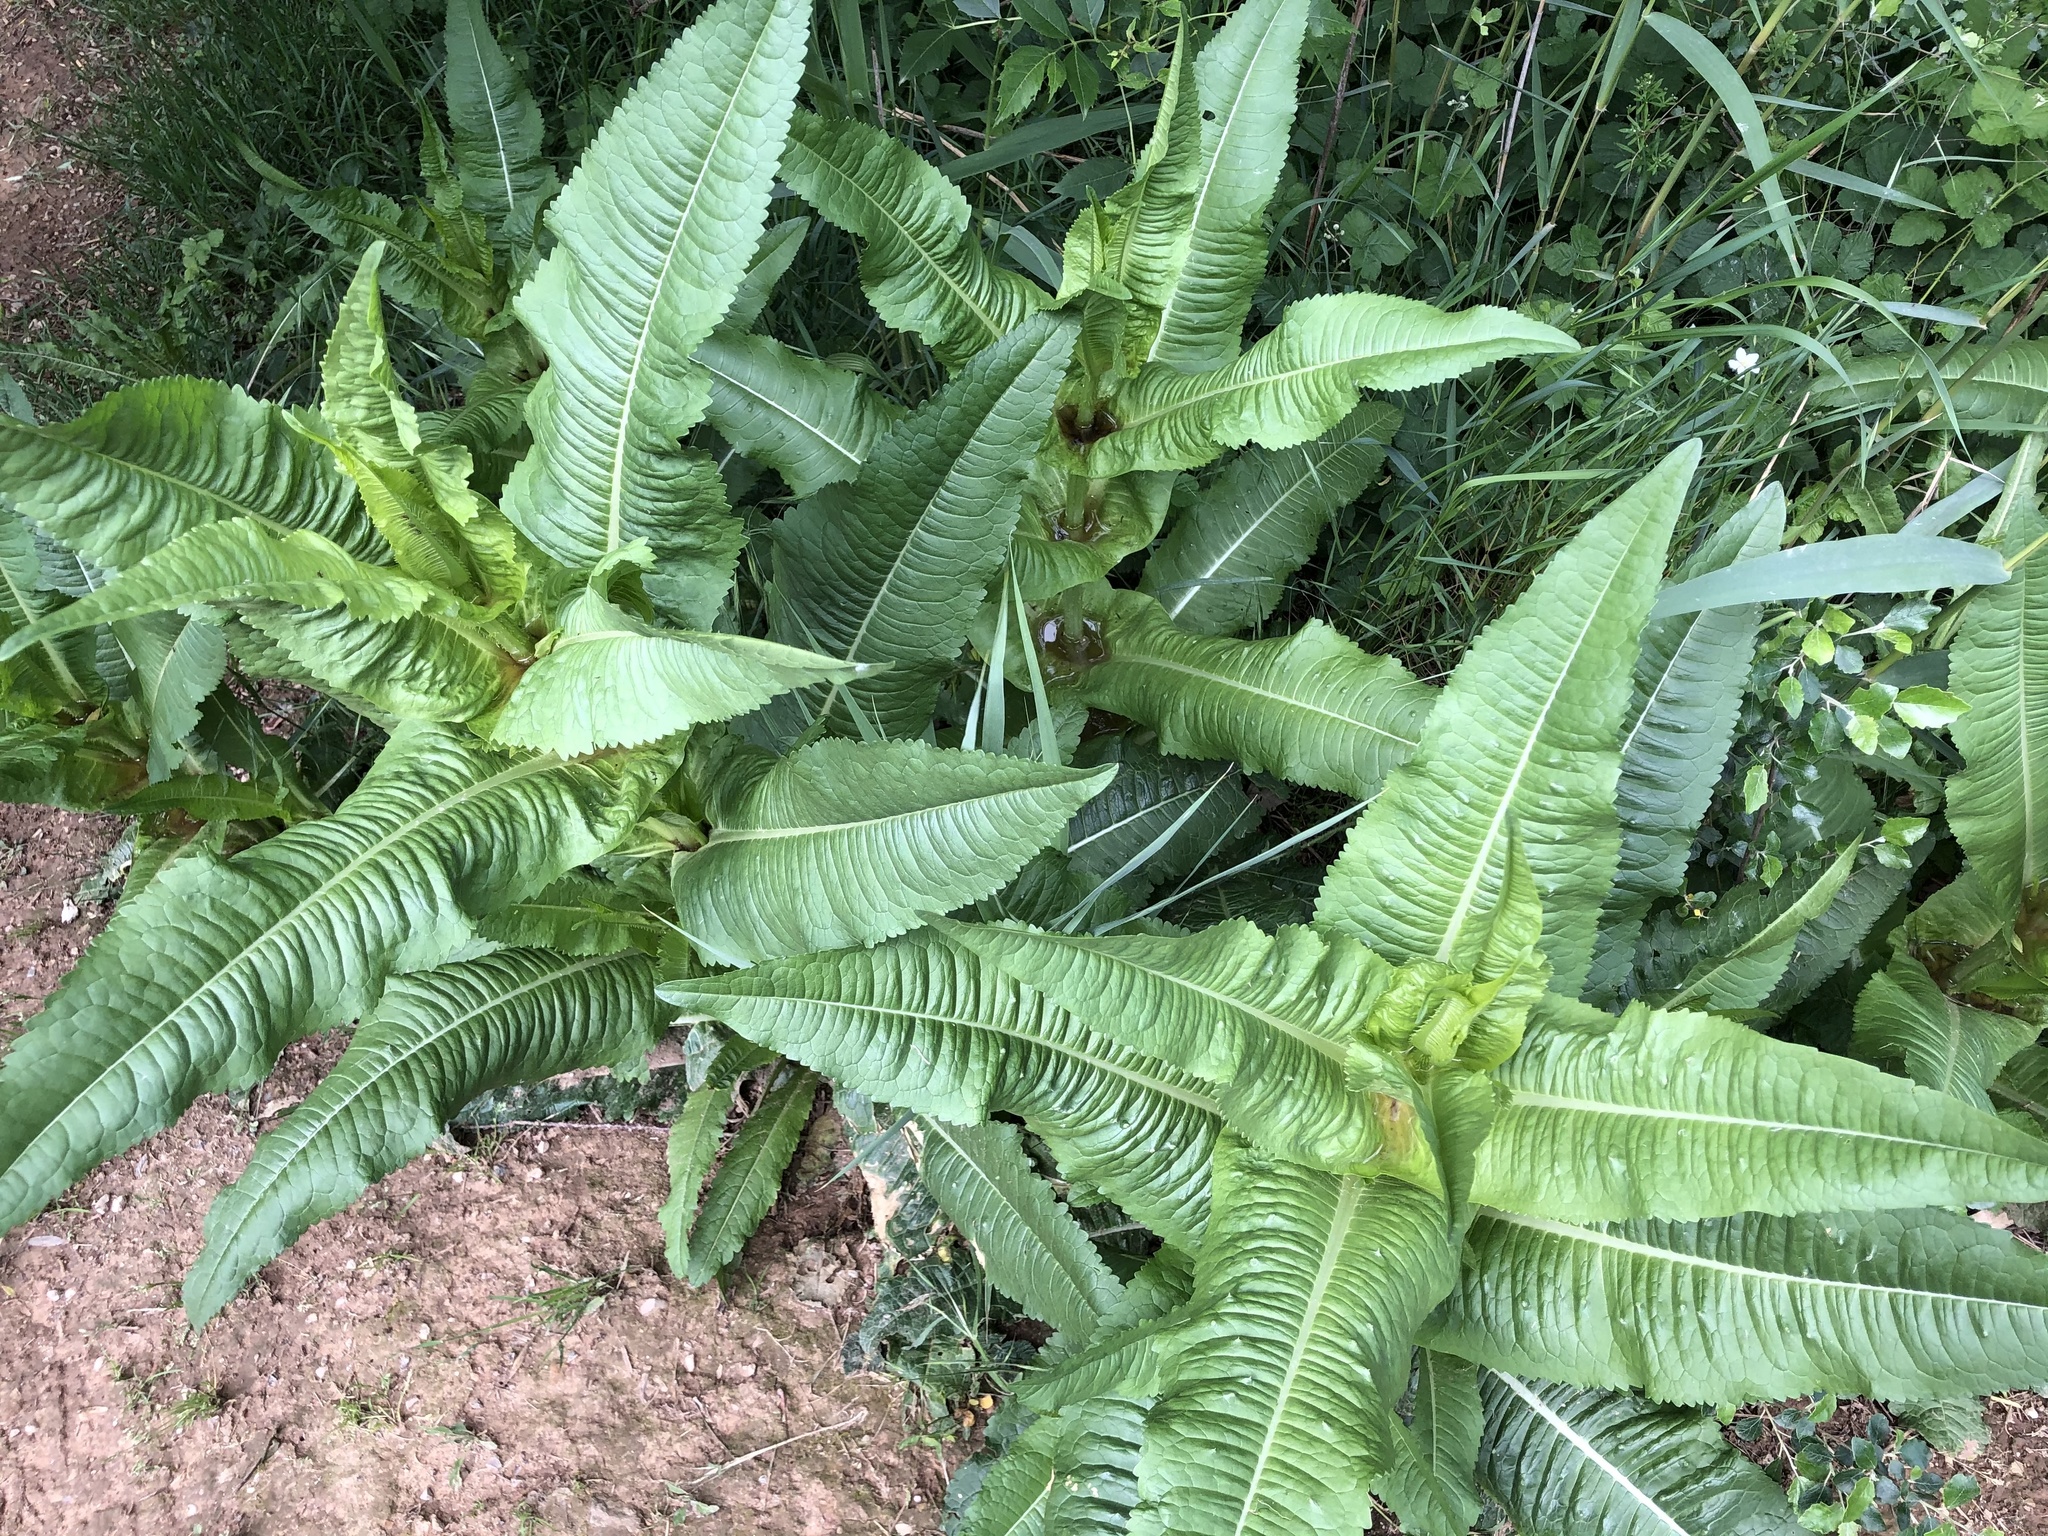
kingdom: Plantae
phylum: Tracheophyta
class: Magnoliopsida
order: Dipsacales
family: Caprifoliaceae
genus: Dipsacus
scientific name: Dipsacus fullonum
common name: Teasel
